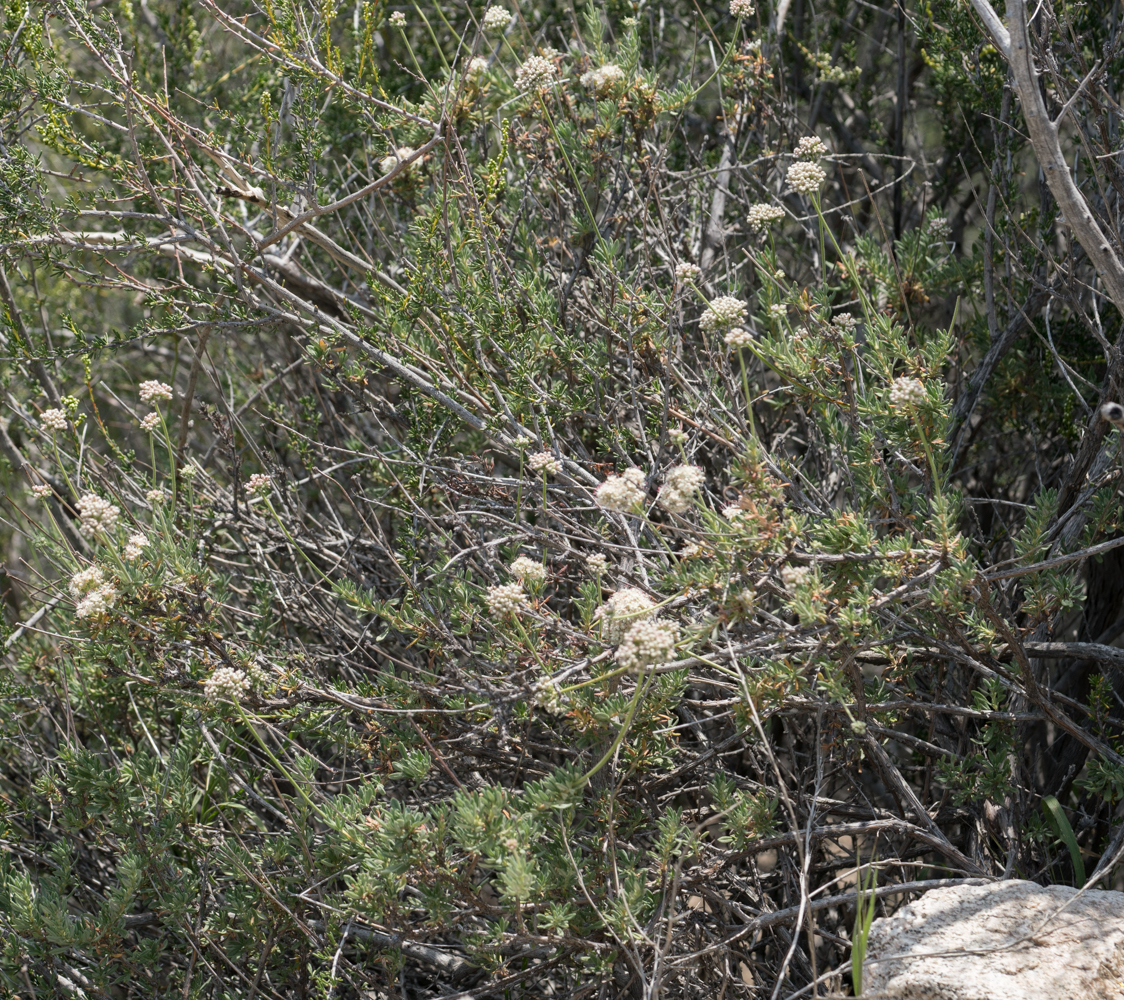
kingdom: Plantae
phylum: Tracheophyta
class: Magnoliopsida
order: Caryophyllales
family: Polygonaceae
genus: Eriogonum
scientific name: Eriogonum fasciculatum
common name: California wild buckwheat
